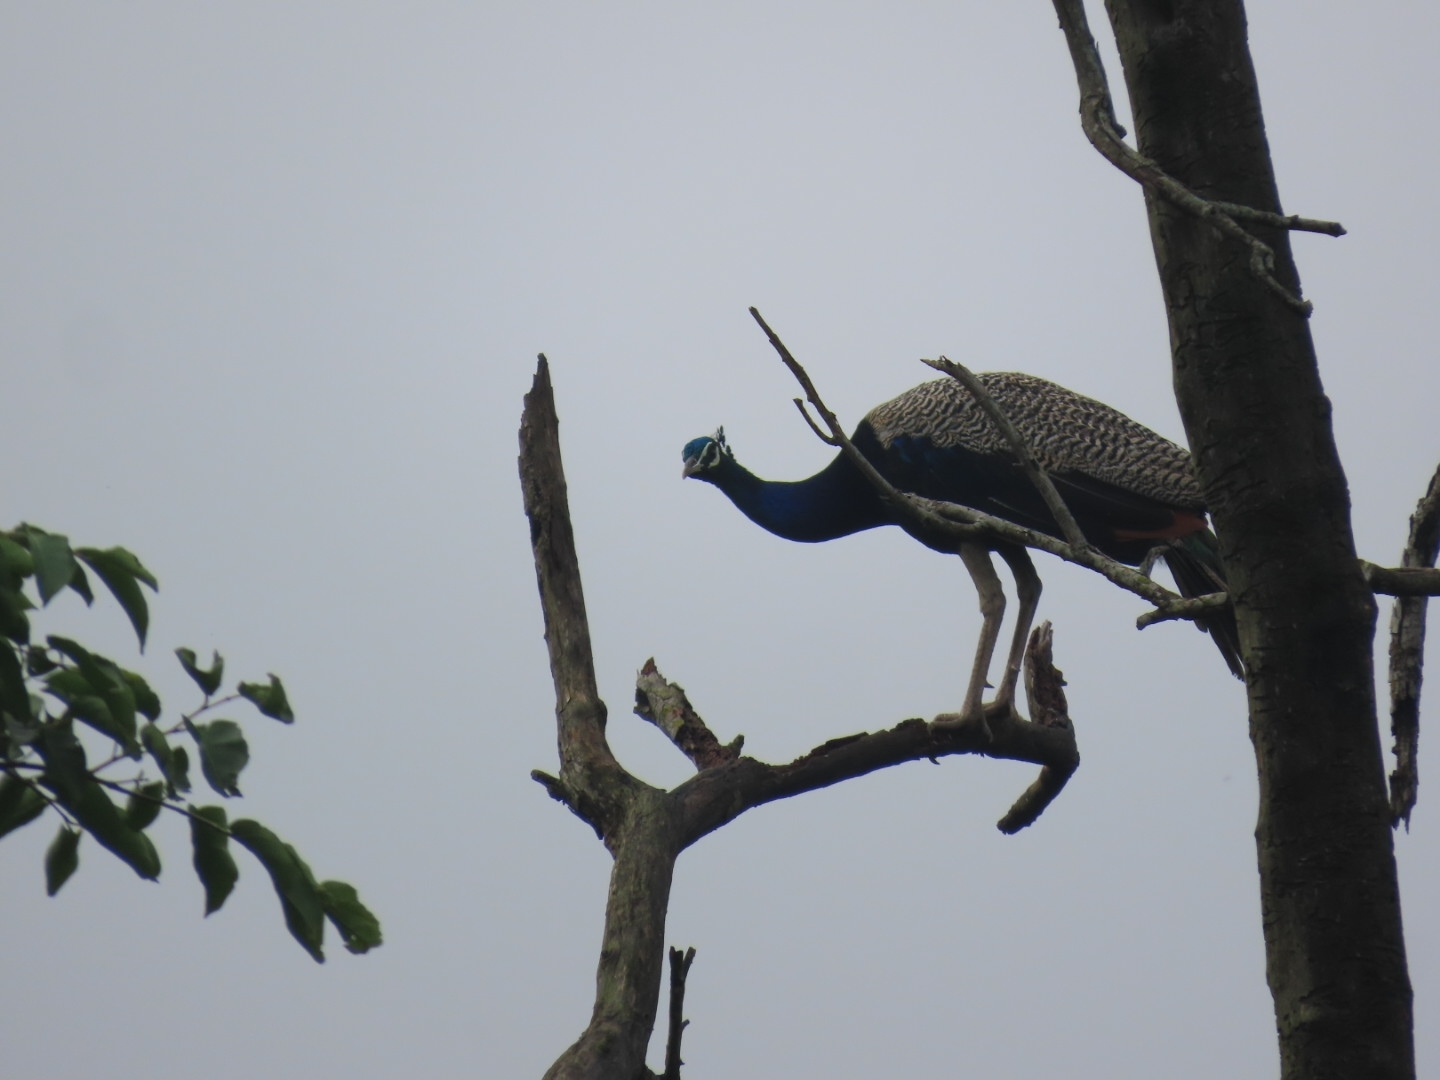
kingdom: Animalia
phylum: Chordata
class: Aves
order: Galliformes
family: Phasianidae
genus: Pavo
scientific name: Pavo cristatus
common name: Indian peafowl
